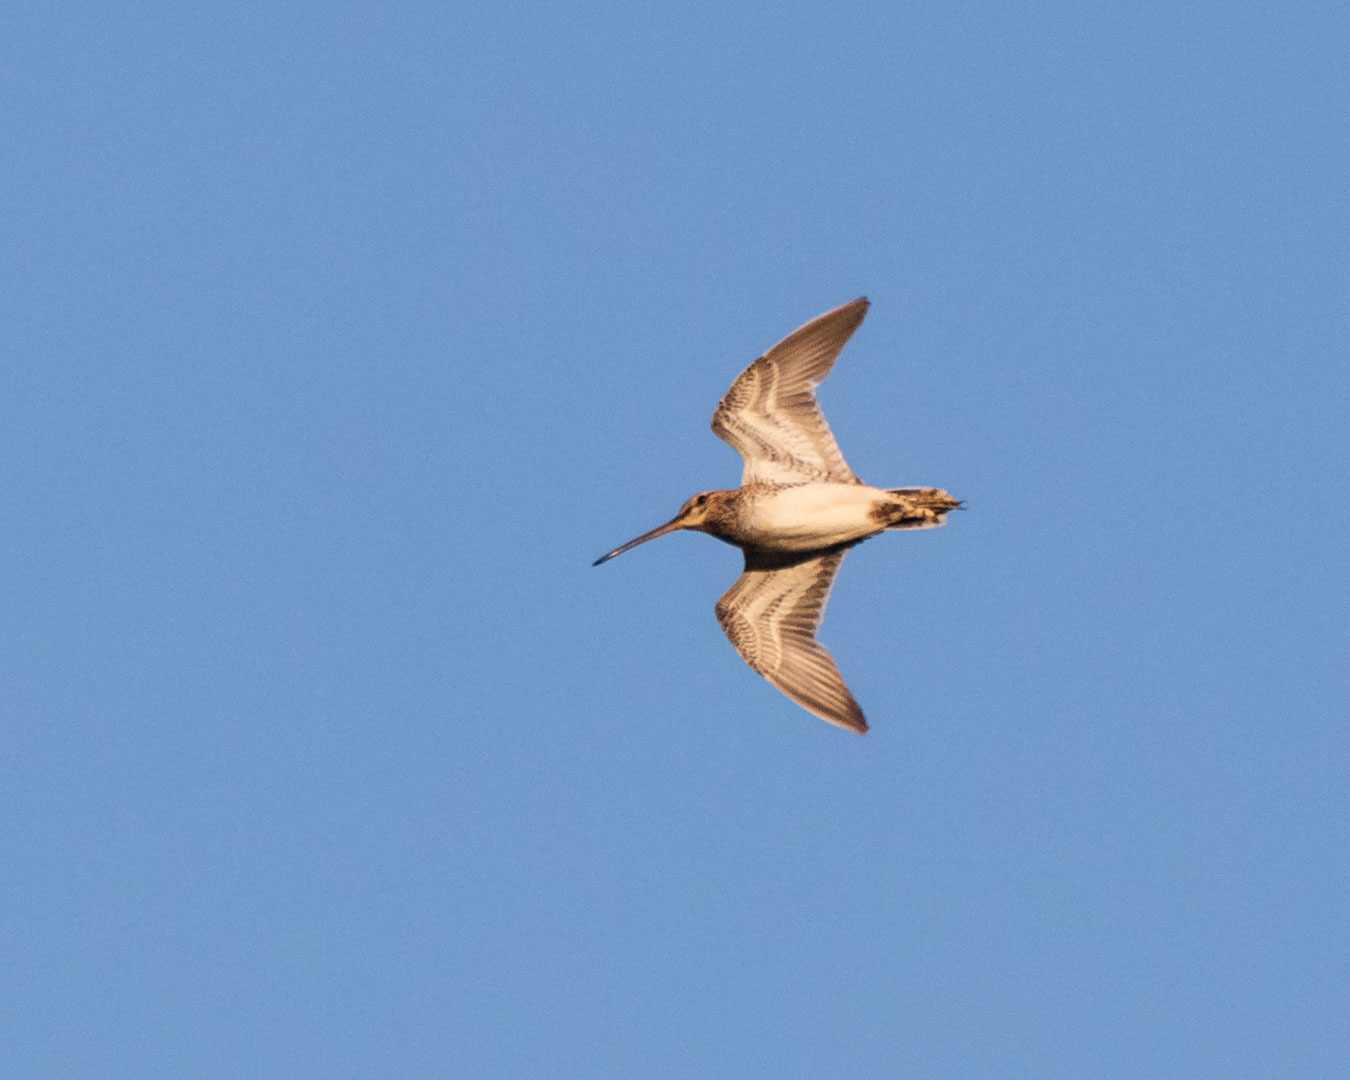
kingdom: Animalia
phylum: Chordata
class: Aves
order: Charadriiformes
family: Scolopacidae
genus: Gallinago
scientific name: Gallinago gallinago
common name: Common snipe
